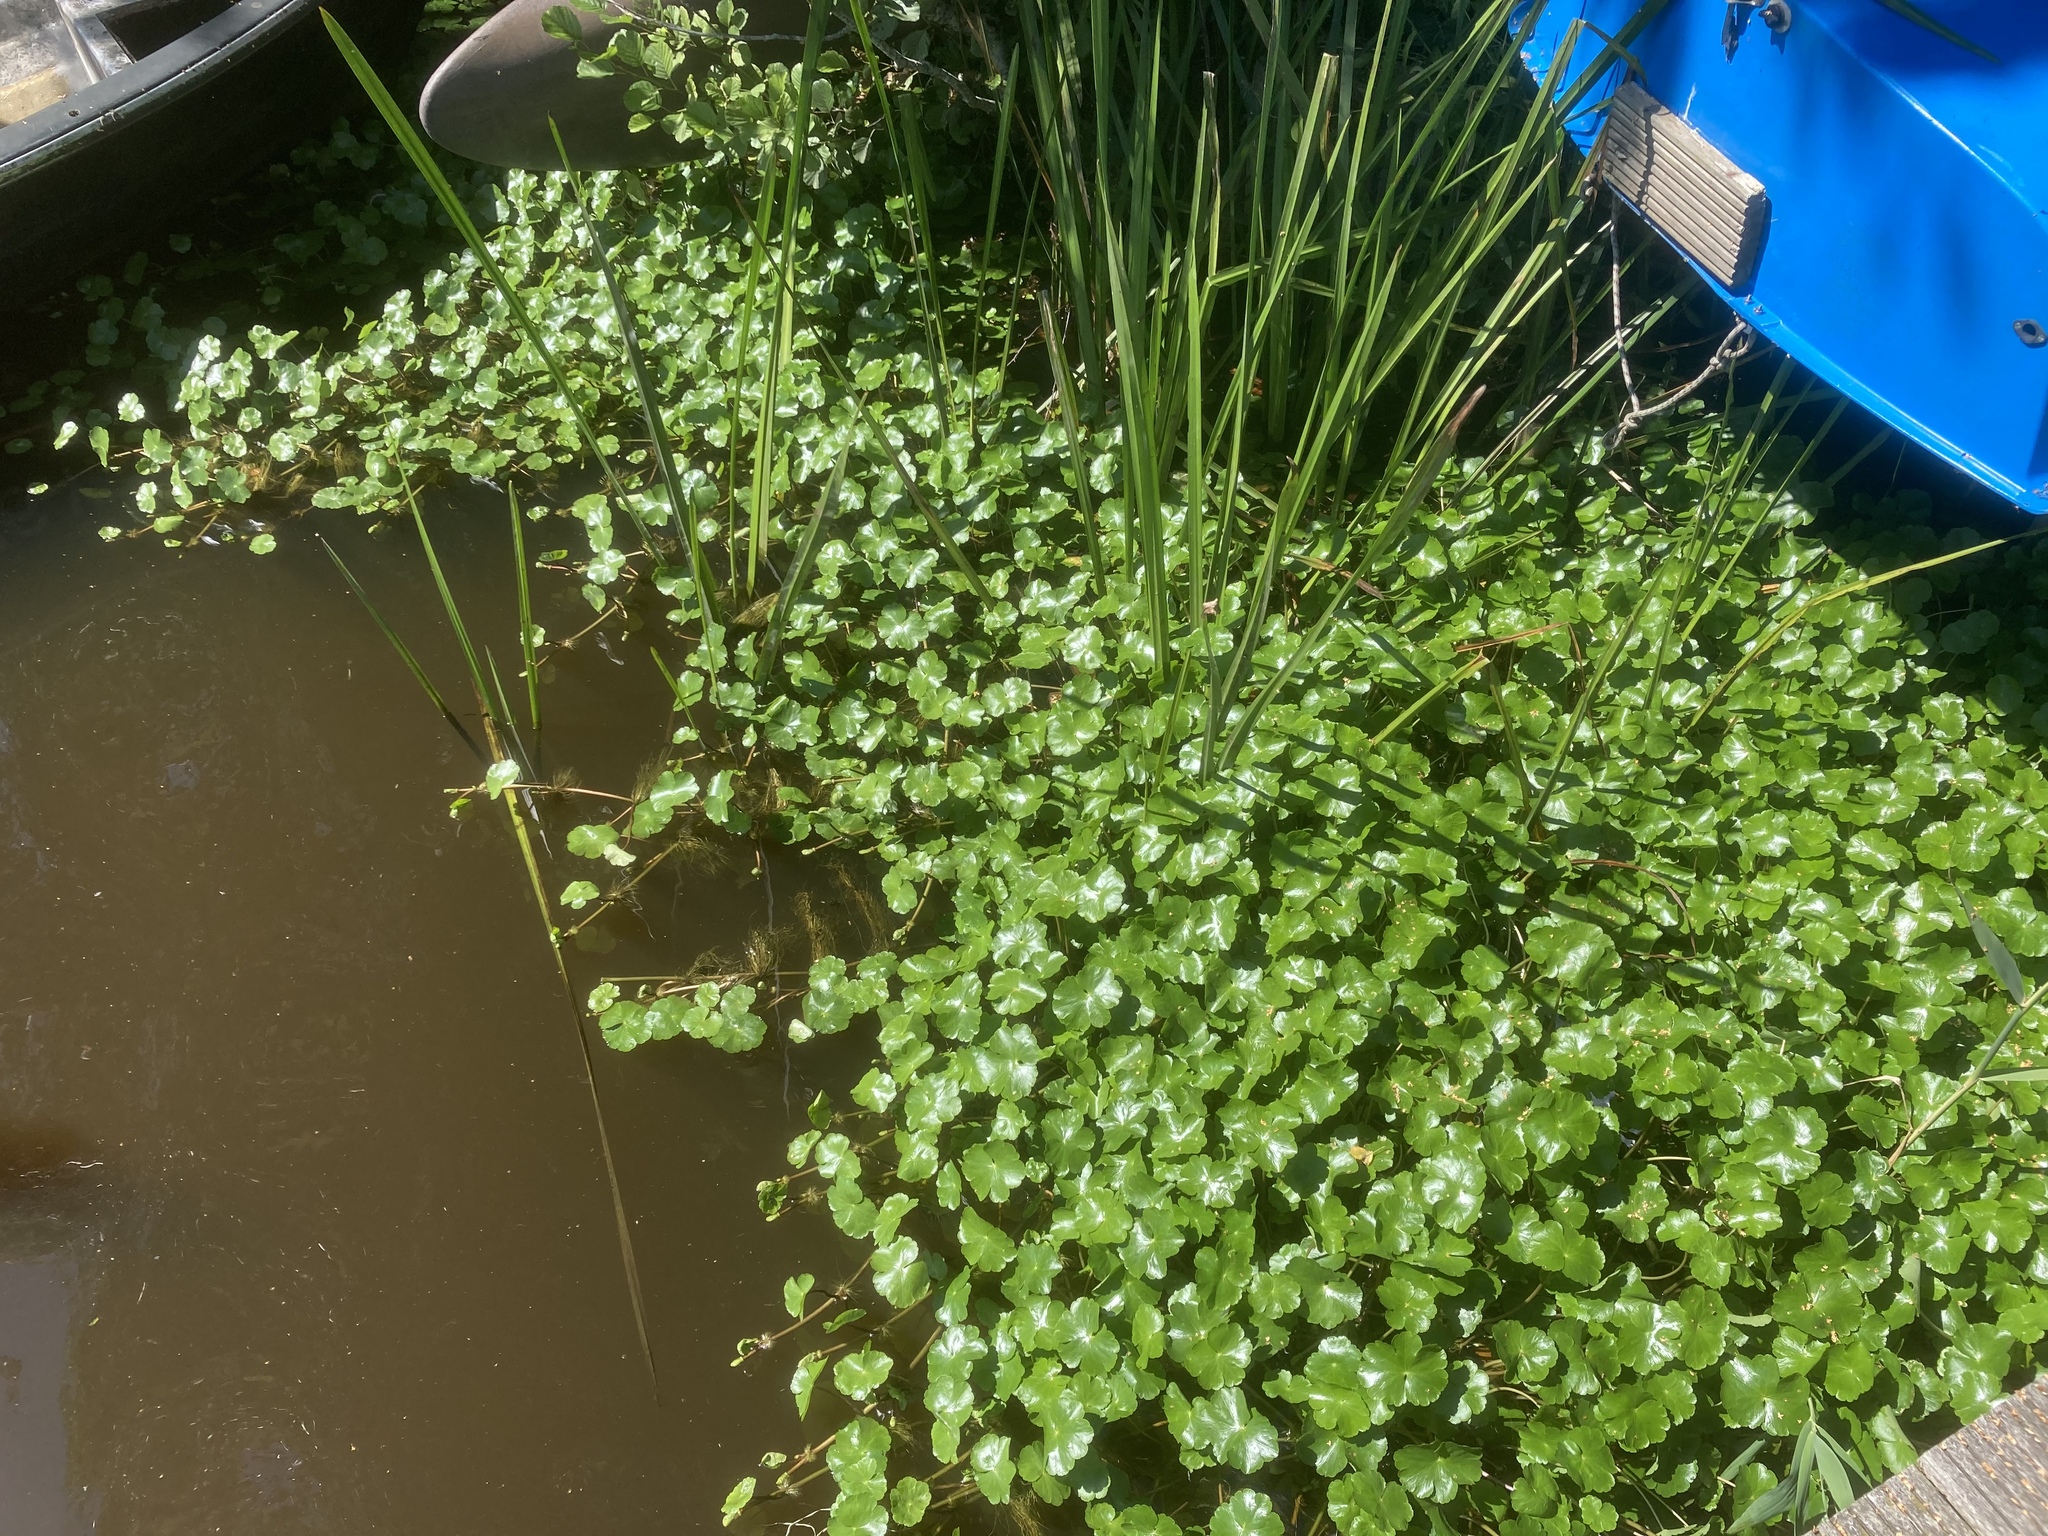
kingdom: Plantae
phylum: Tracheophyta
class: Magnoliopsida
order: Apiales
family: Araliaceae
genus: Hydrocotyle
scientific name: Hydrocotyle ranunculoides
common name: Floating pennywort
